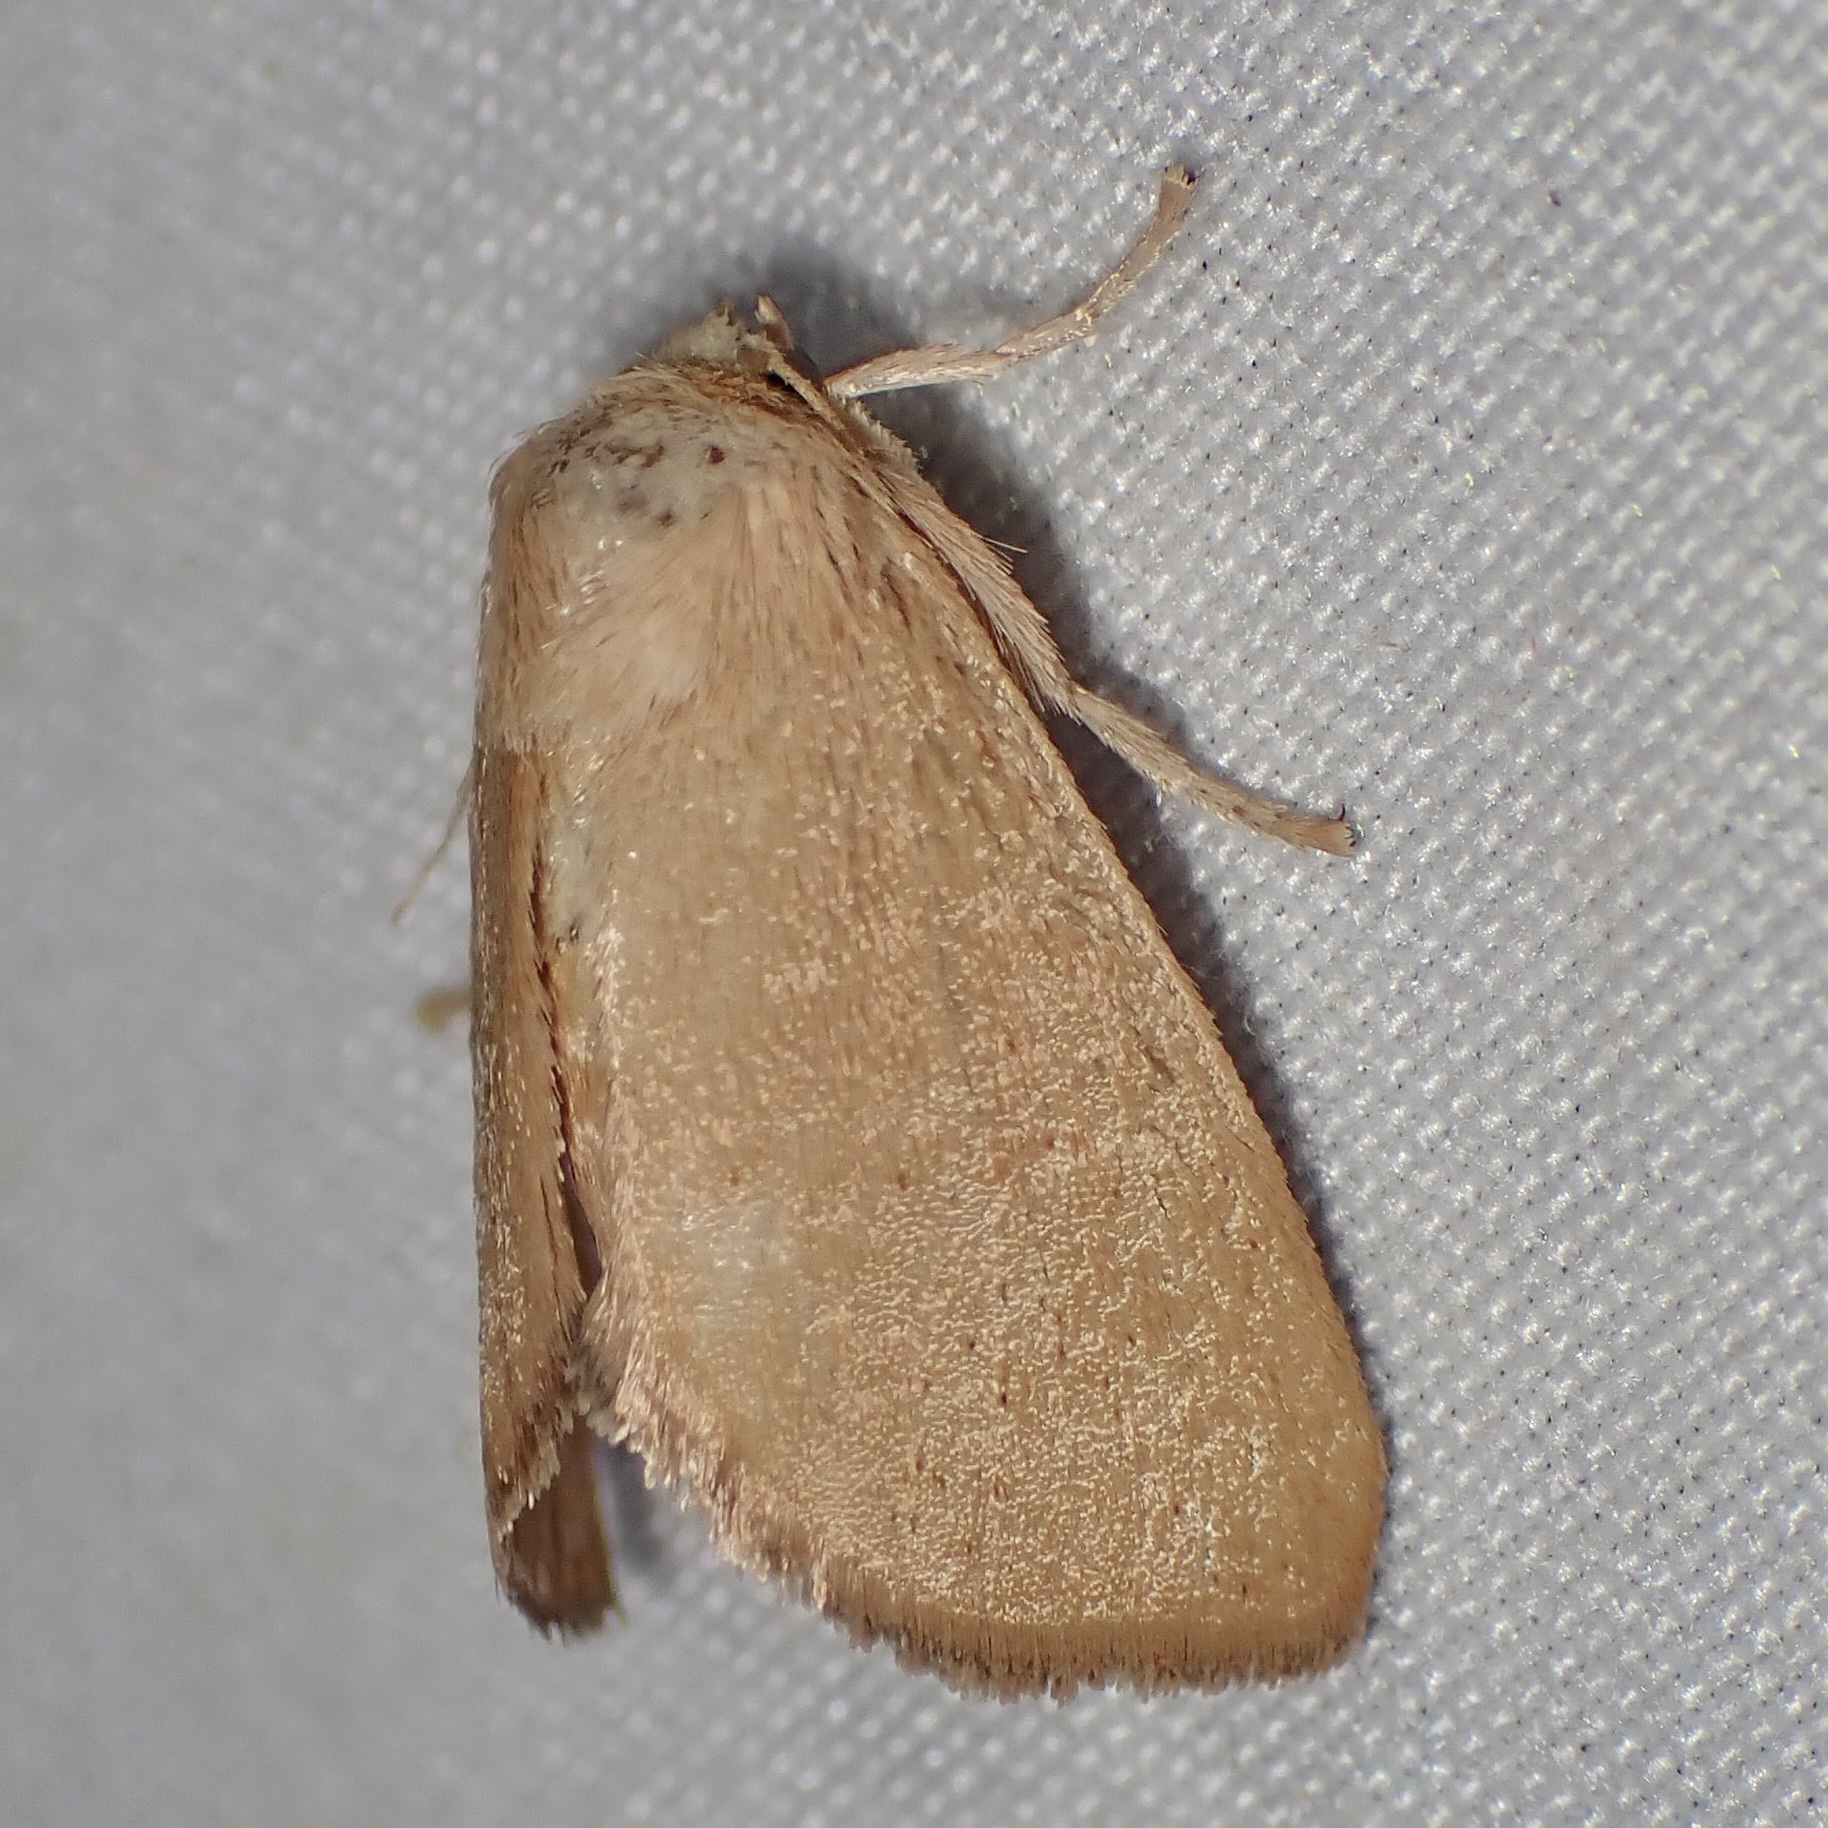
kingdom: Animalia
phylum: Arthropoda
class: Insecta
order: Lepidoptera
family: Limacodidae
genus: Isa
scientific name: Isa schaefferana
